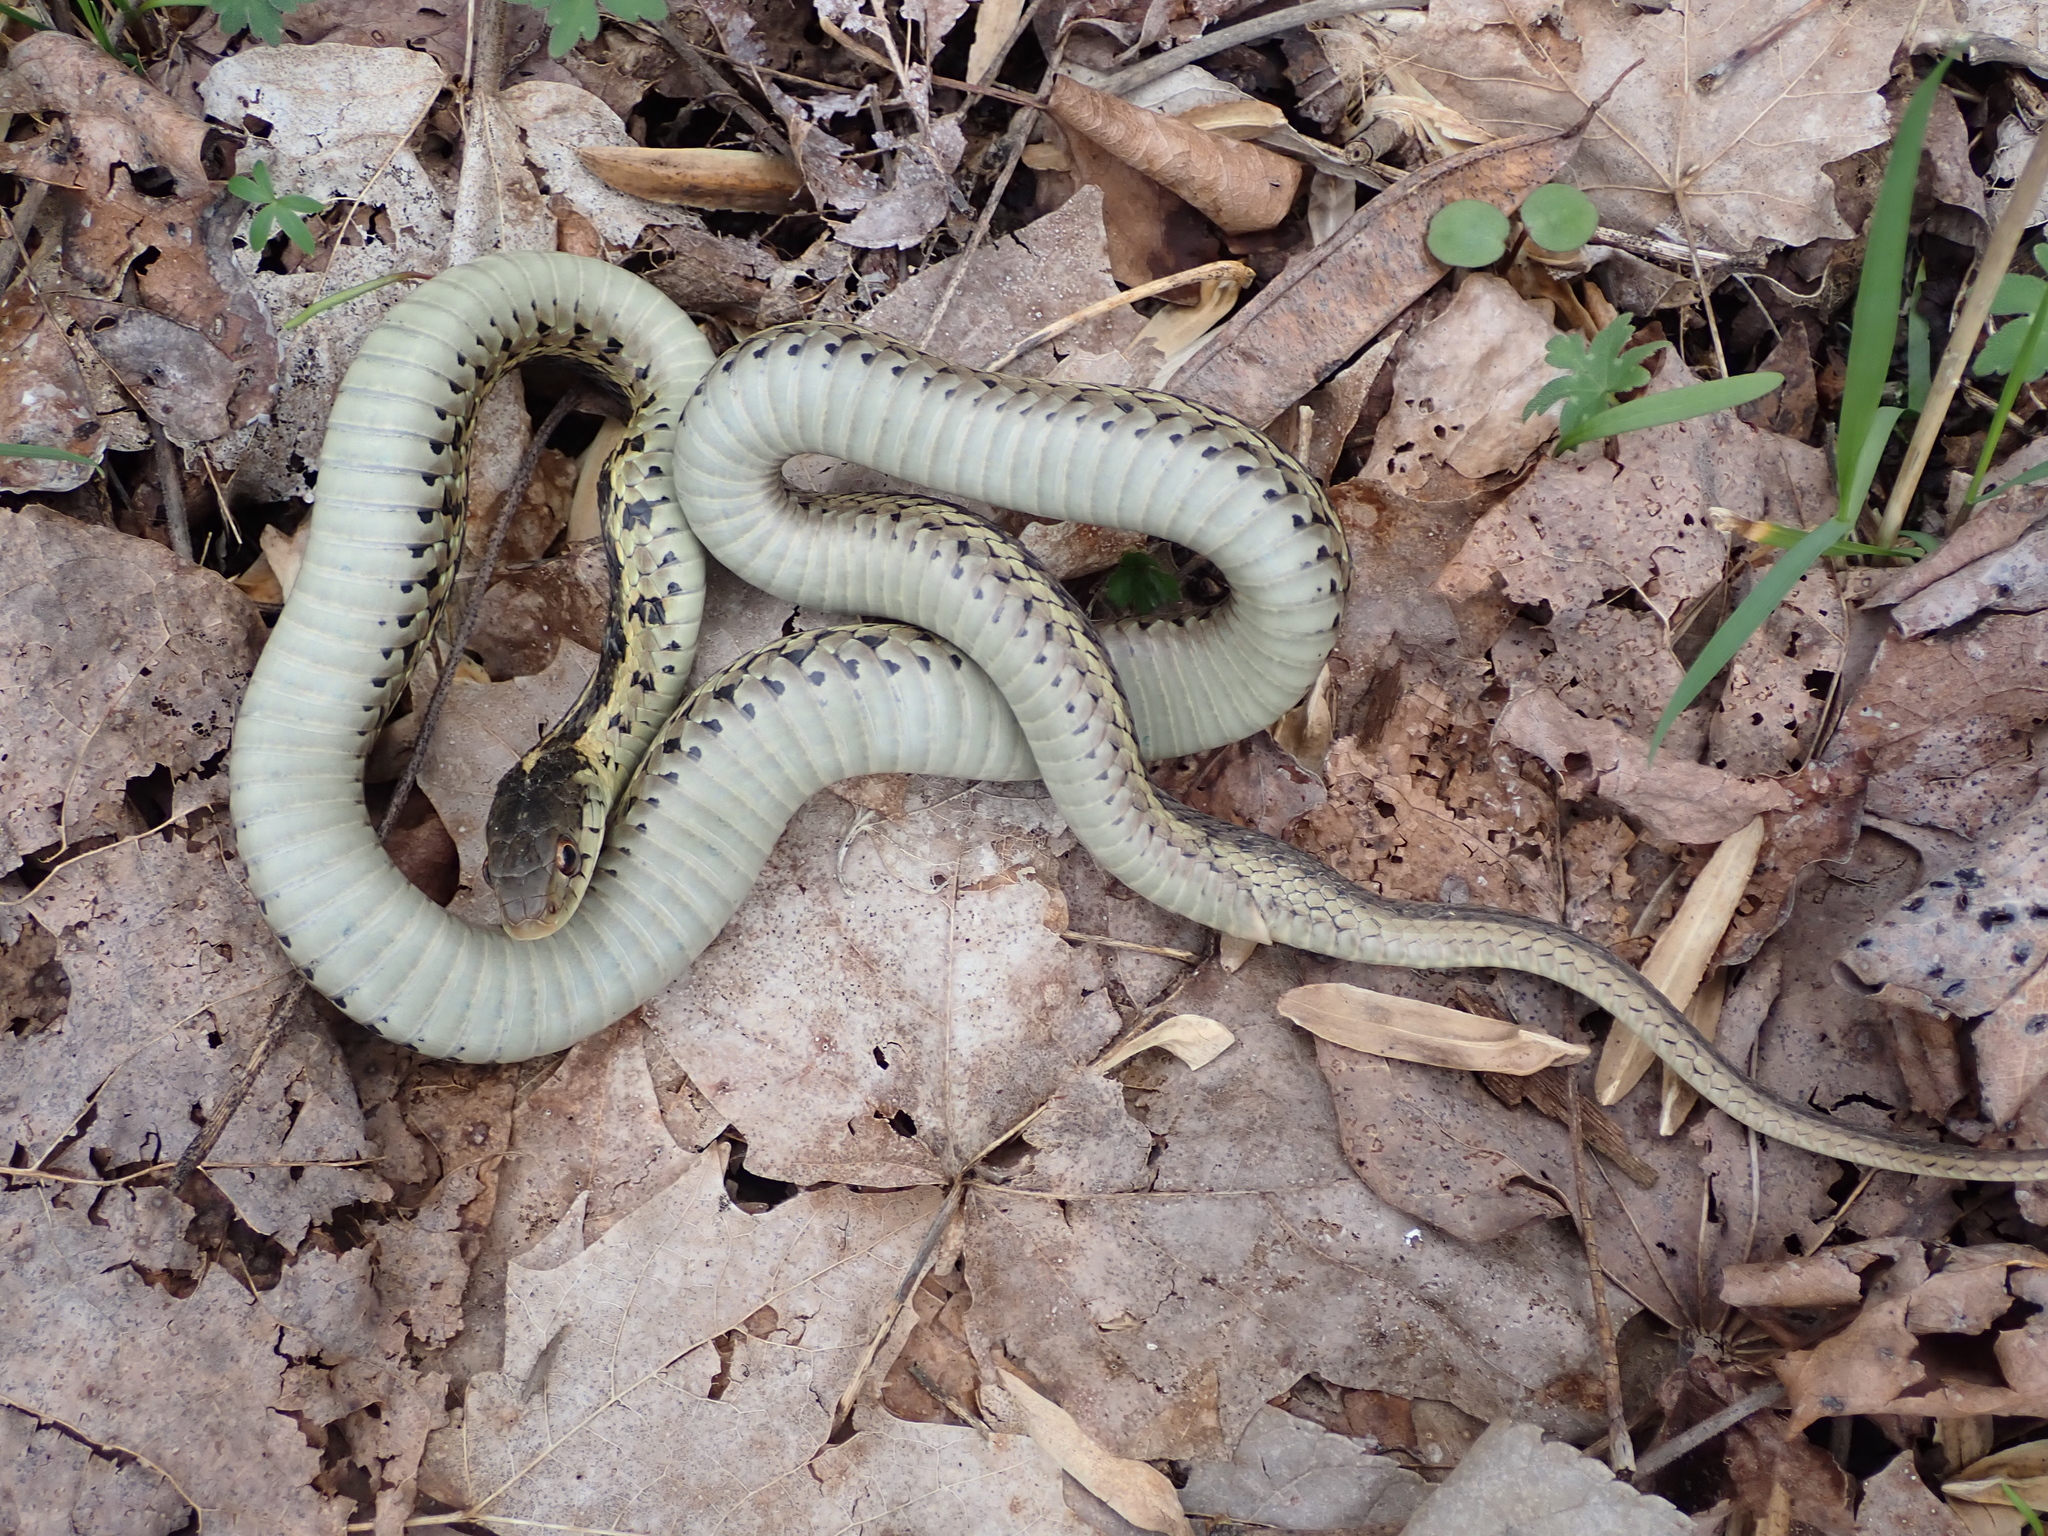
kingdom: Animalia
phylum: Chordata
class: Squamata
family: Colubridae
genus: Thamnophis
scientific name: Thamnophis sirtalis
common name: Common garter snake
